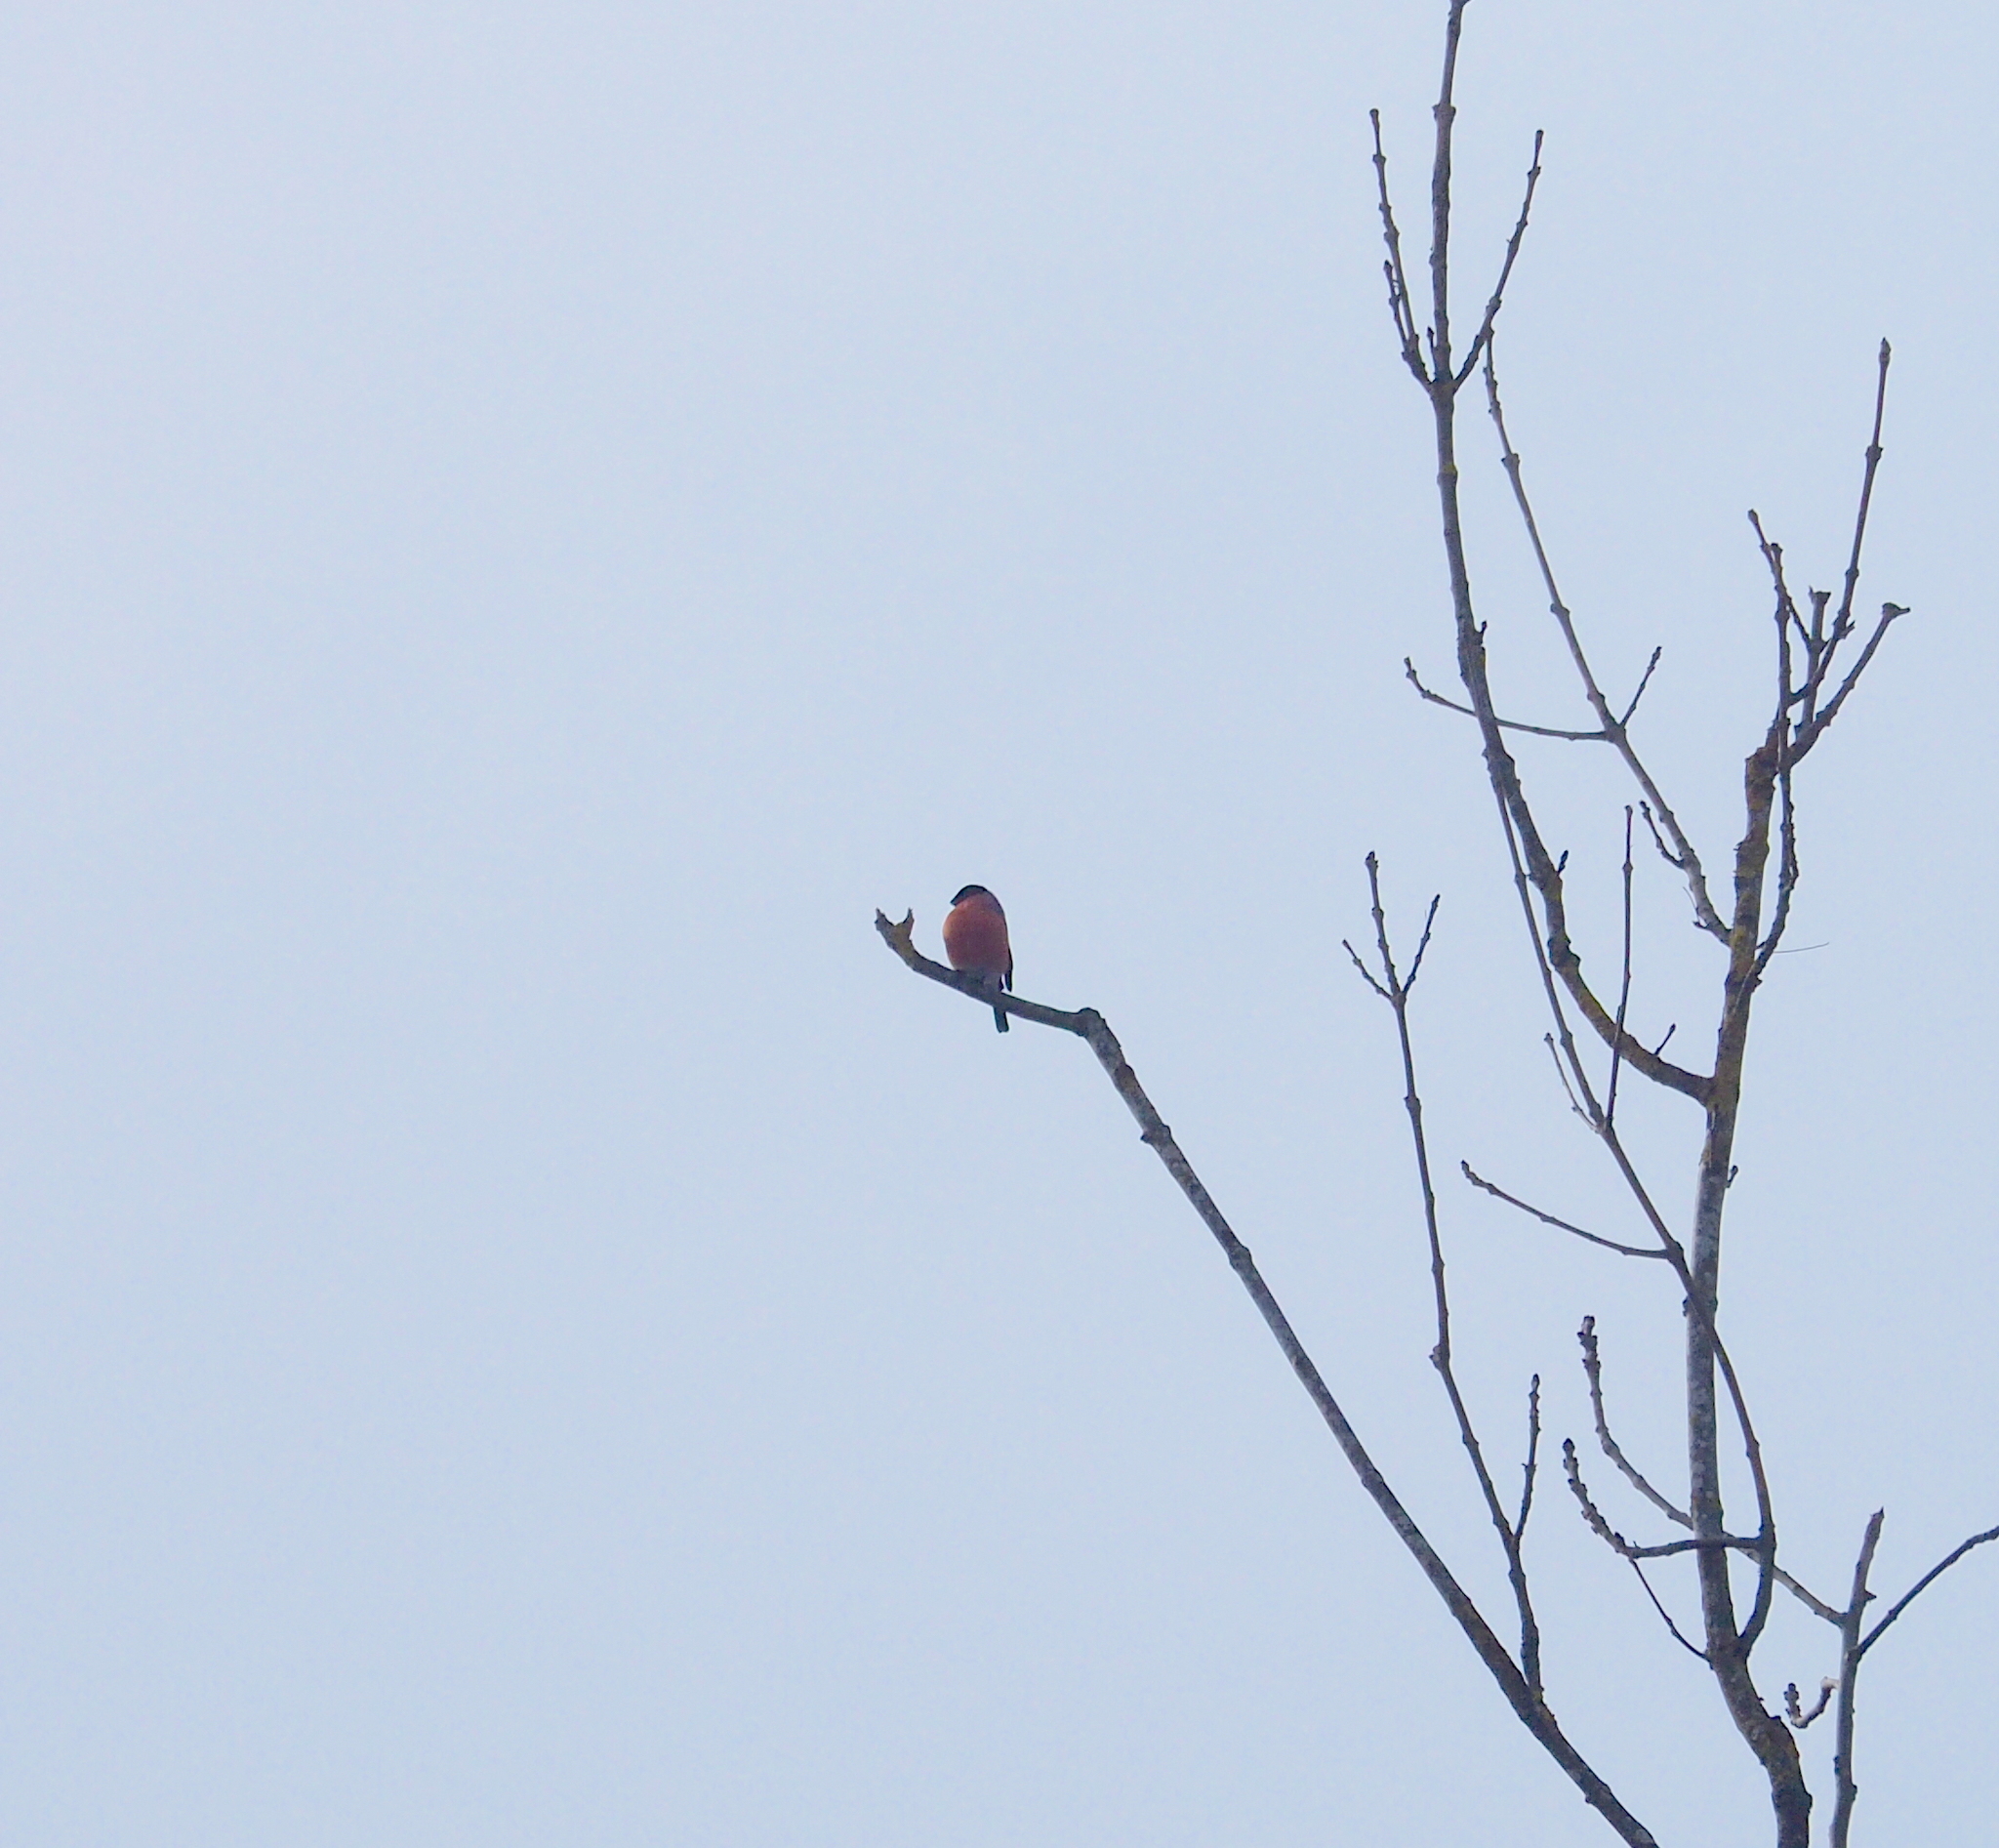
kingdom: Animalia
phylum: Chordata
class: Aves
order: Passeriformes
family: Fringillidae
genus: Pyrrhula
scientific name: Pyrrhula pyrrhula
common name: Eurasian bullfinch
